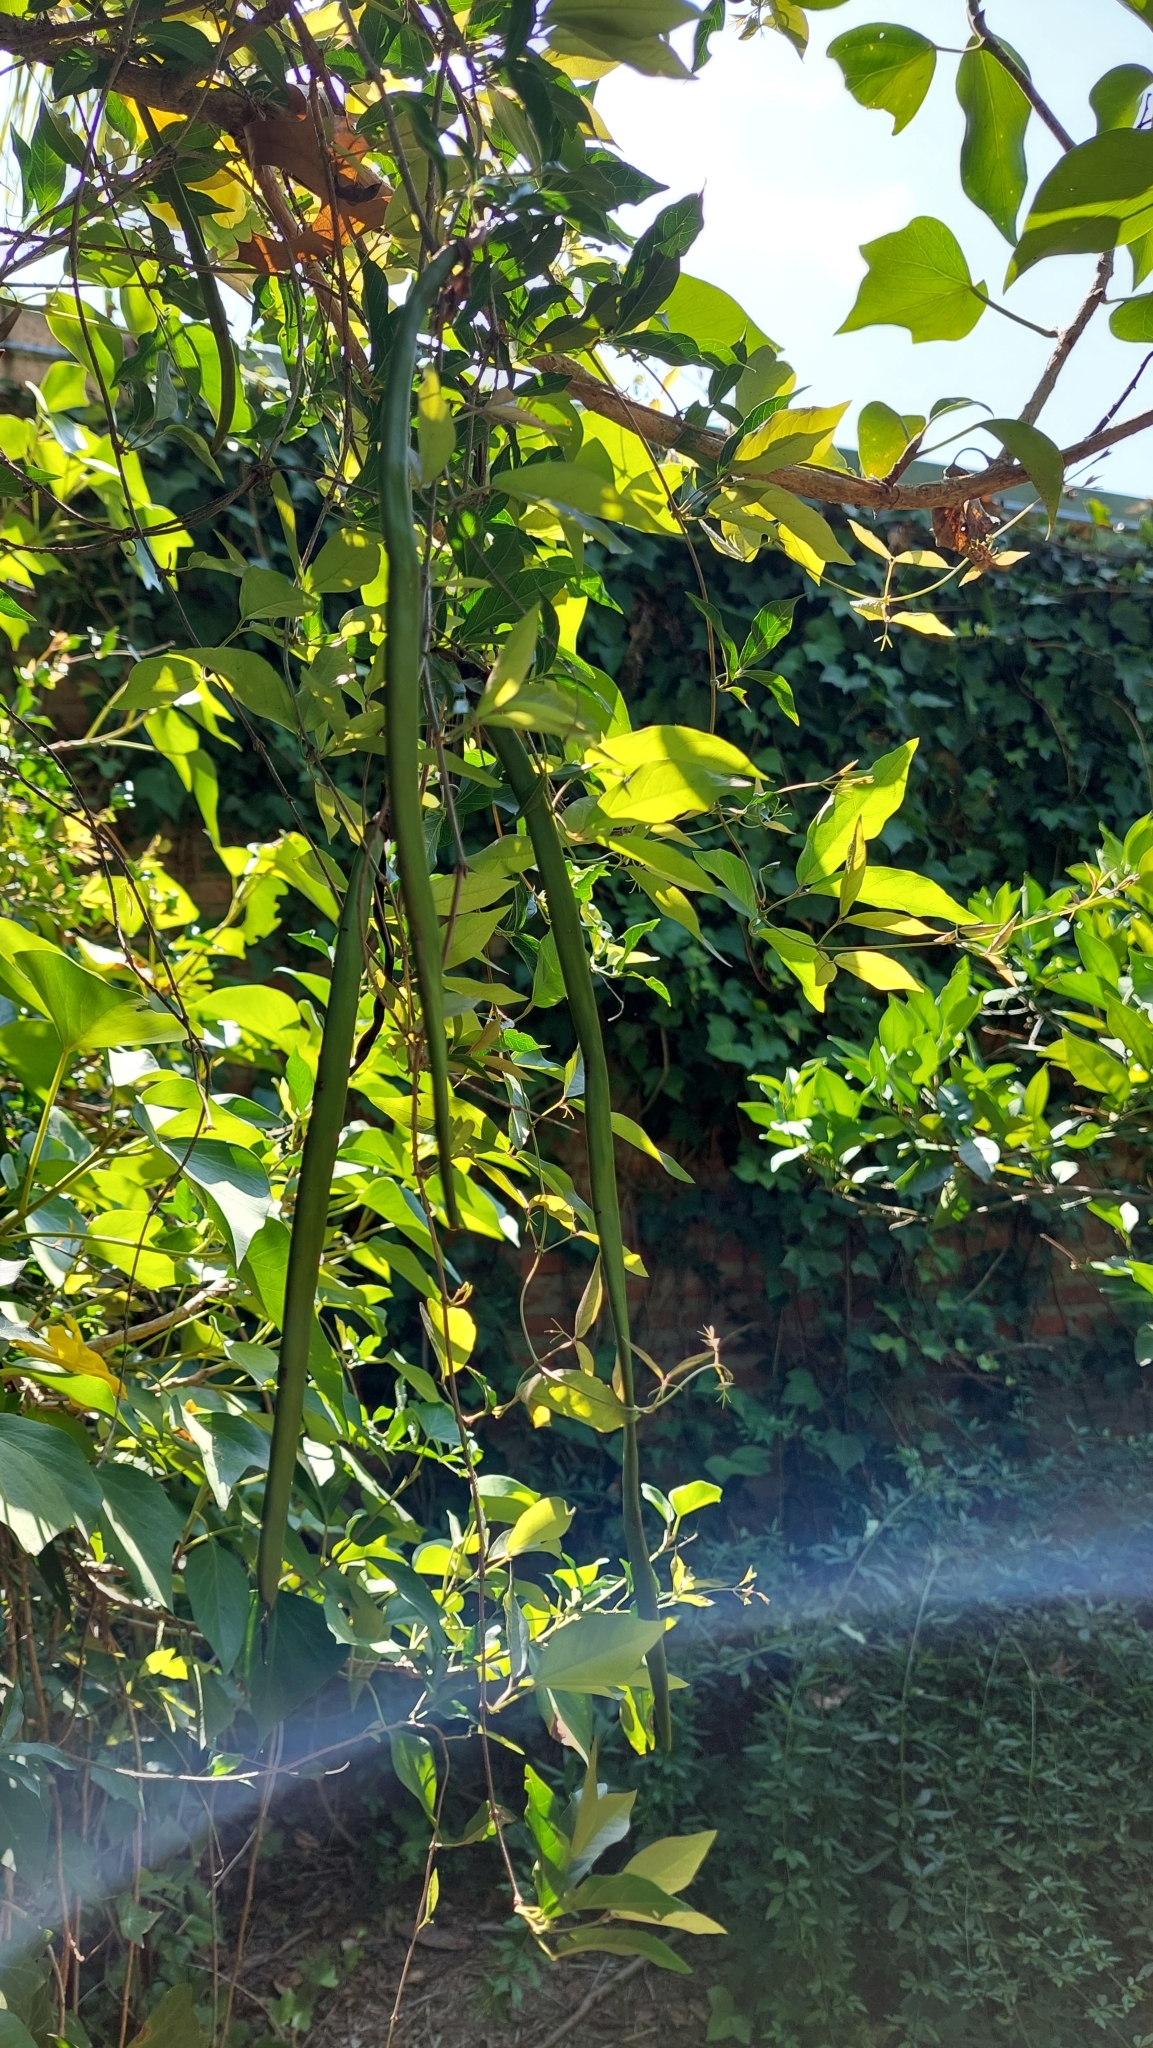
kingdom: Plantae
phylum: Tracheophyta
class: Magnoliopsida
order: Lamiales
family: Bignoniaceae
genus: Dolichandra
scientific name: Dolichandra unguis-cati
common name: Catclaw vine
